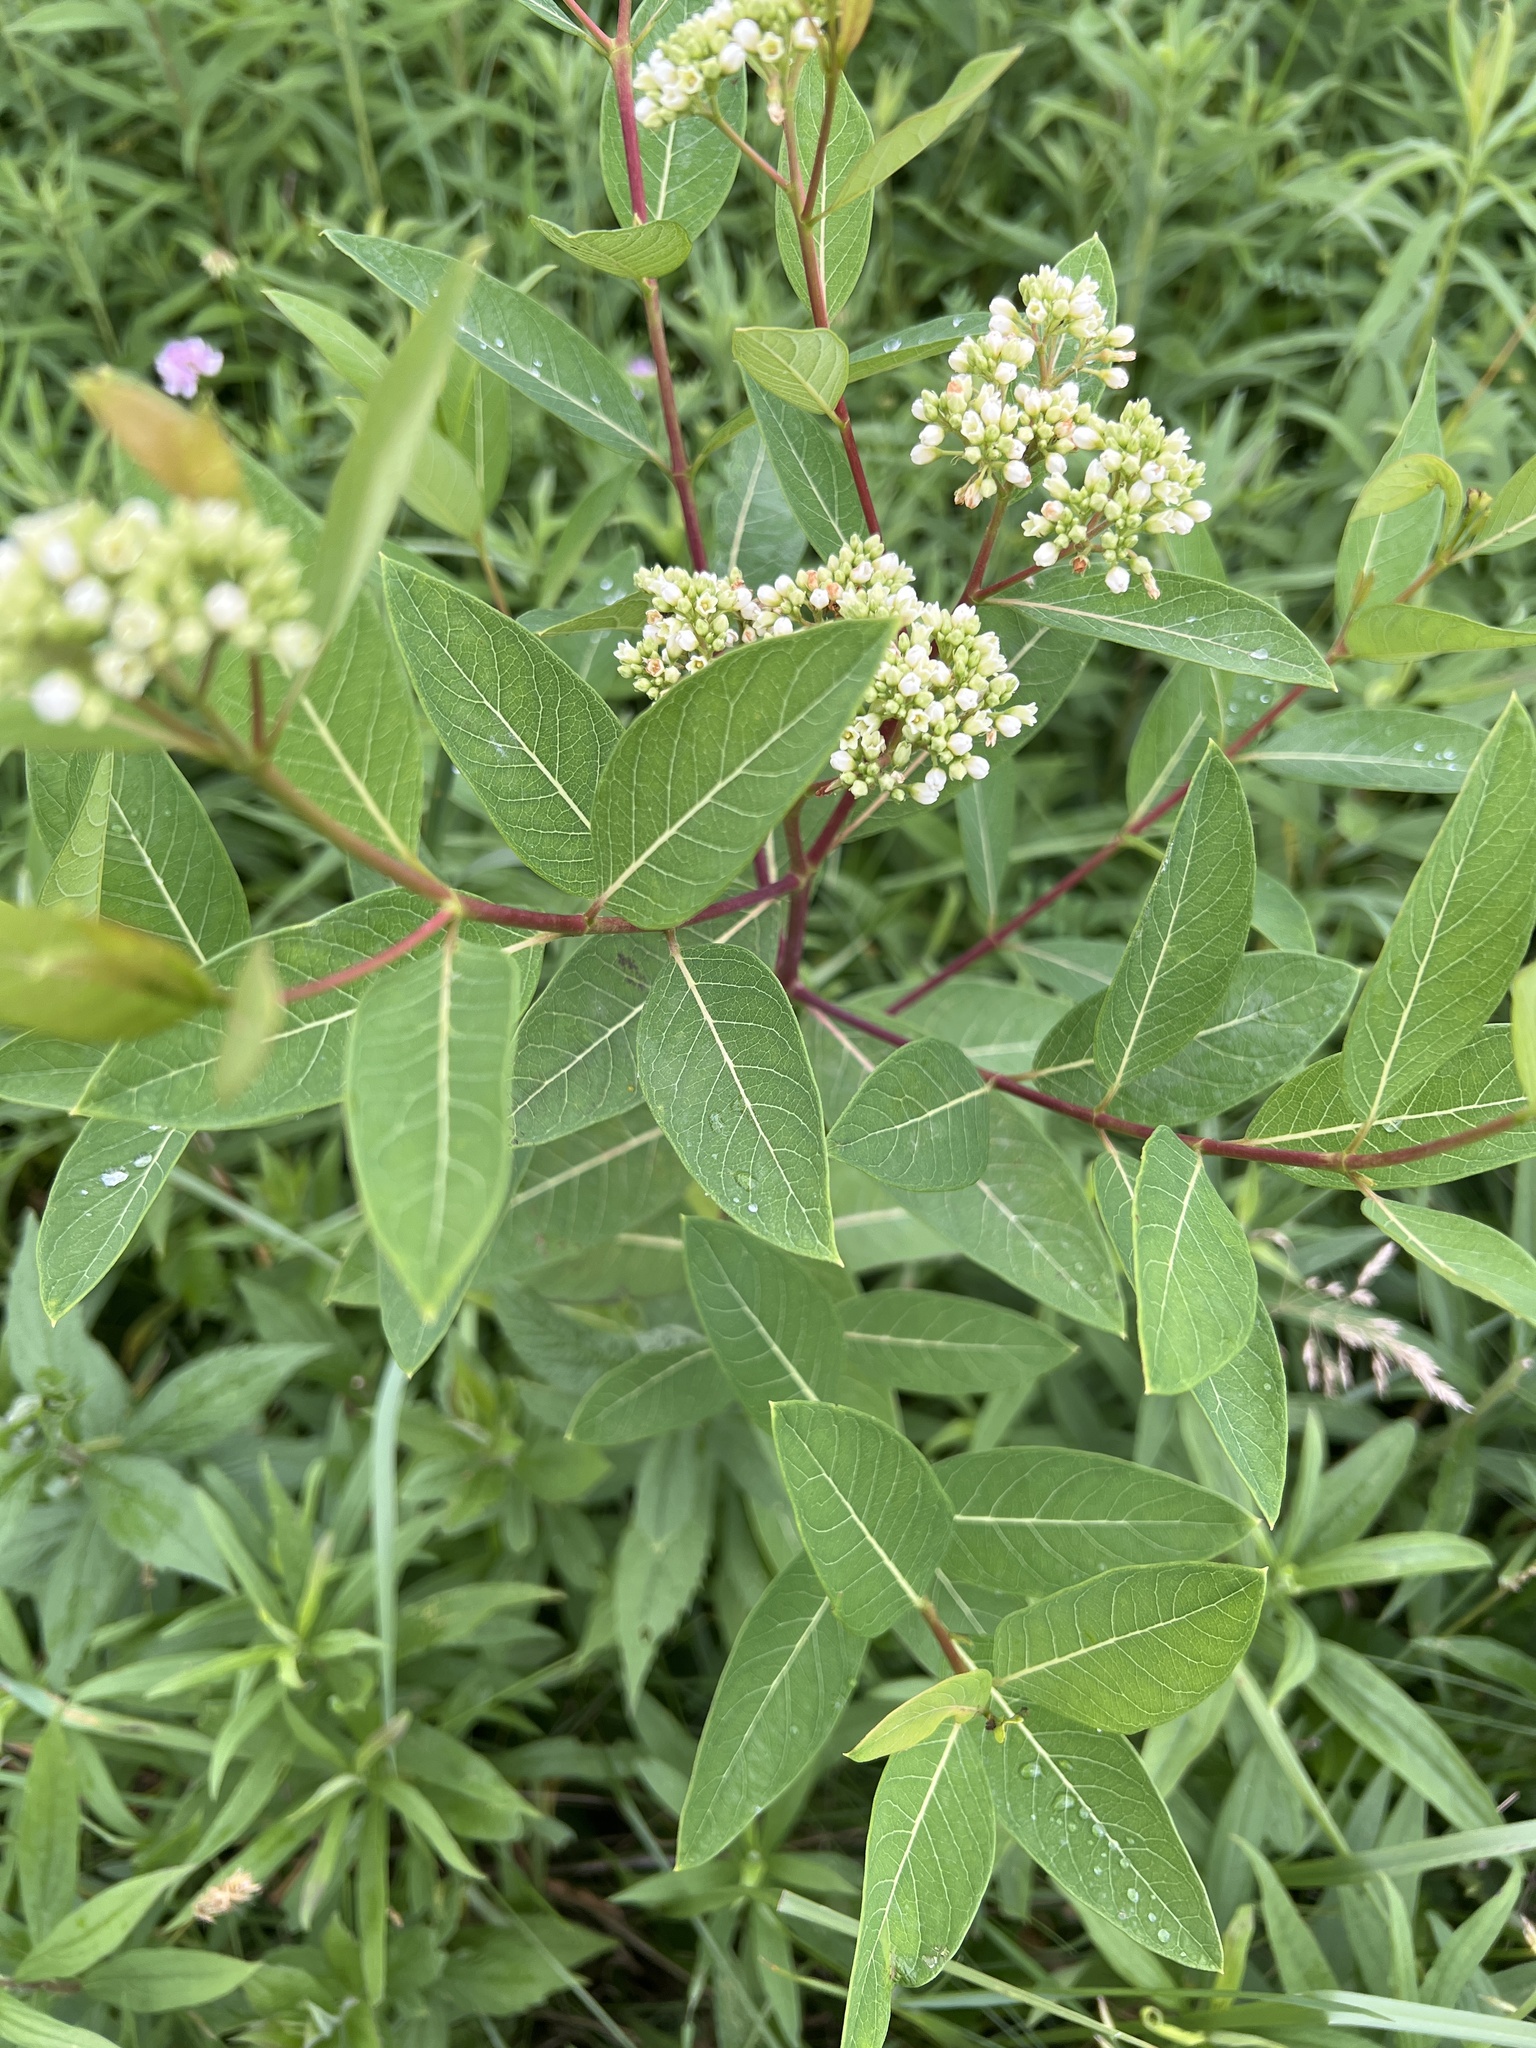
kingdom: Plantae
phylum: Tracheophyta
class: Magnoliopsida
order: Gentianales
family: Apocynaceae
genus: Apocynum
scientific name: Apocynum cannabinum
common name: Hemp dogbane
